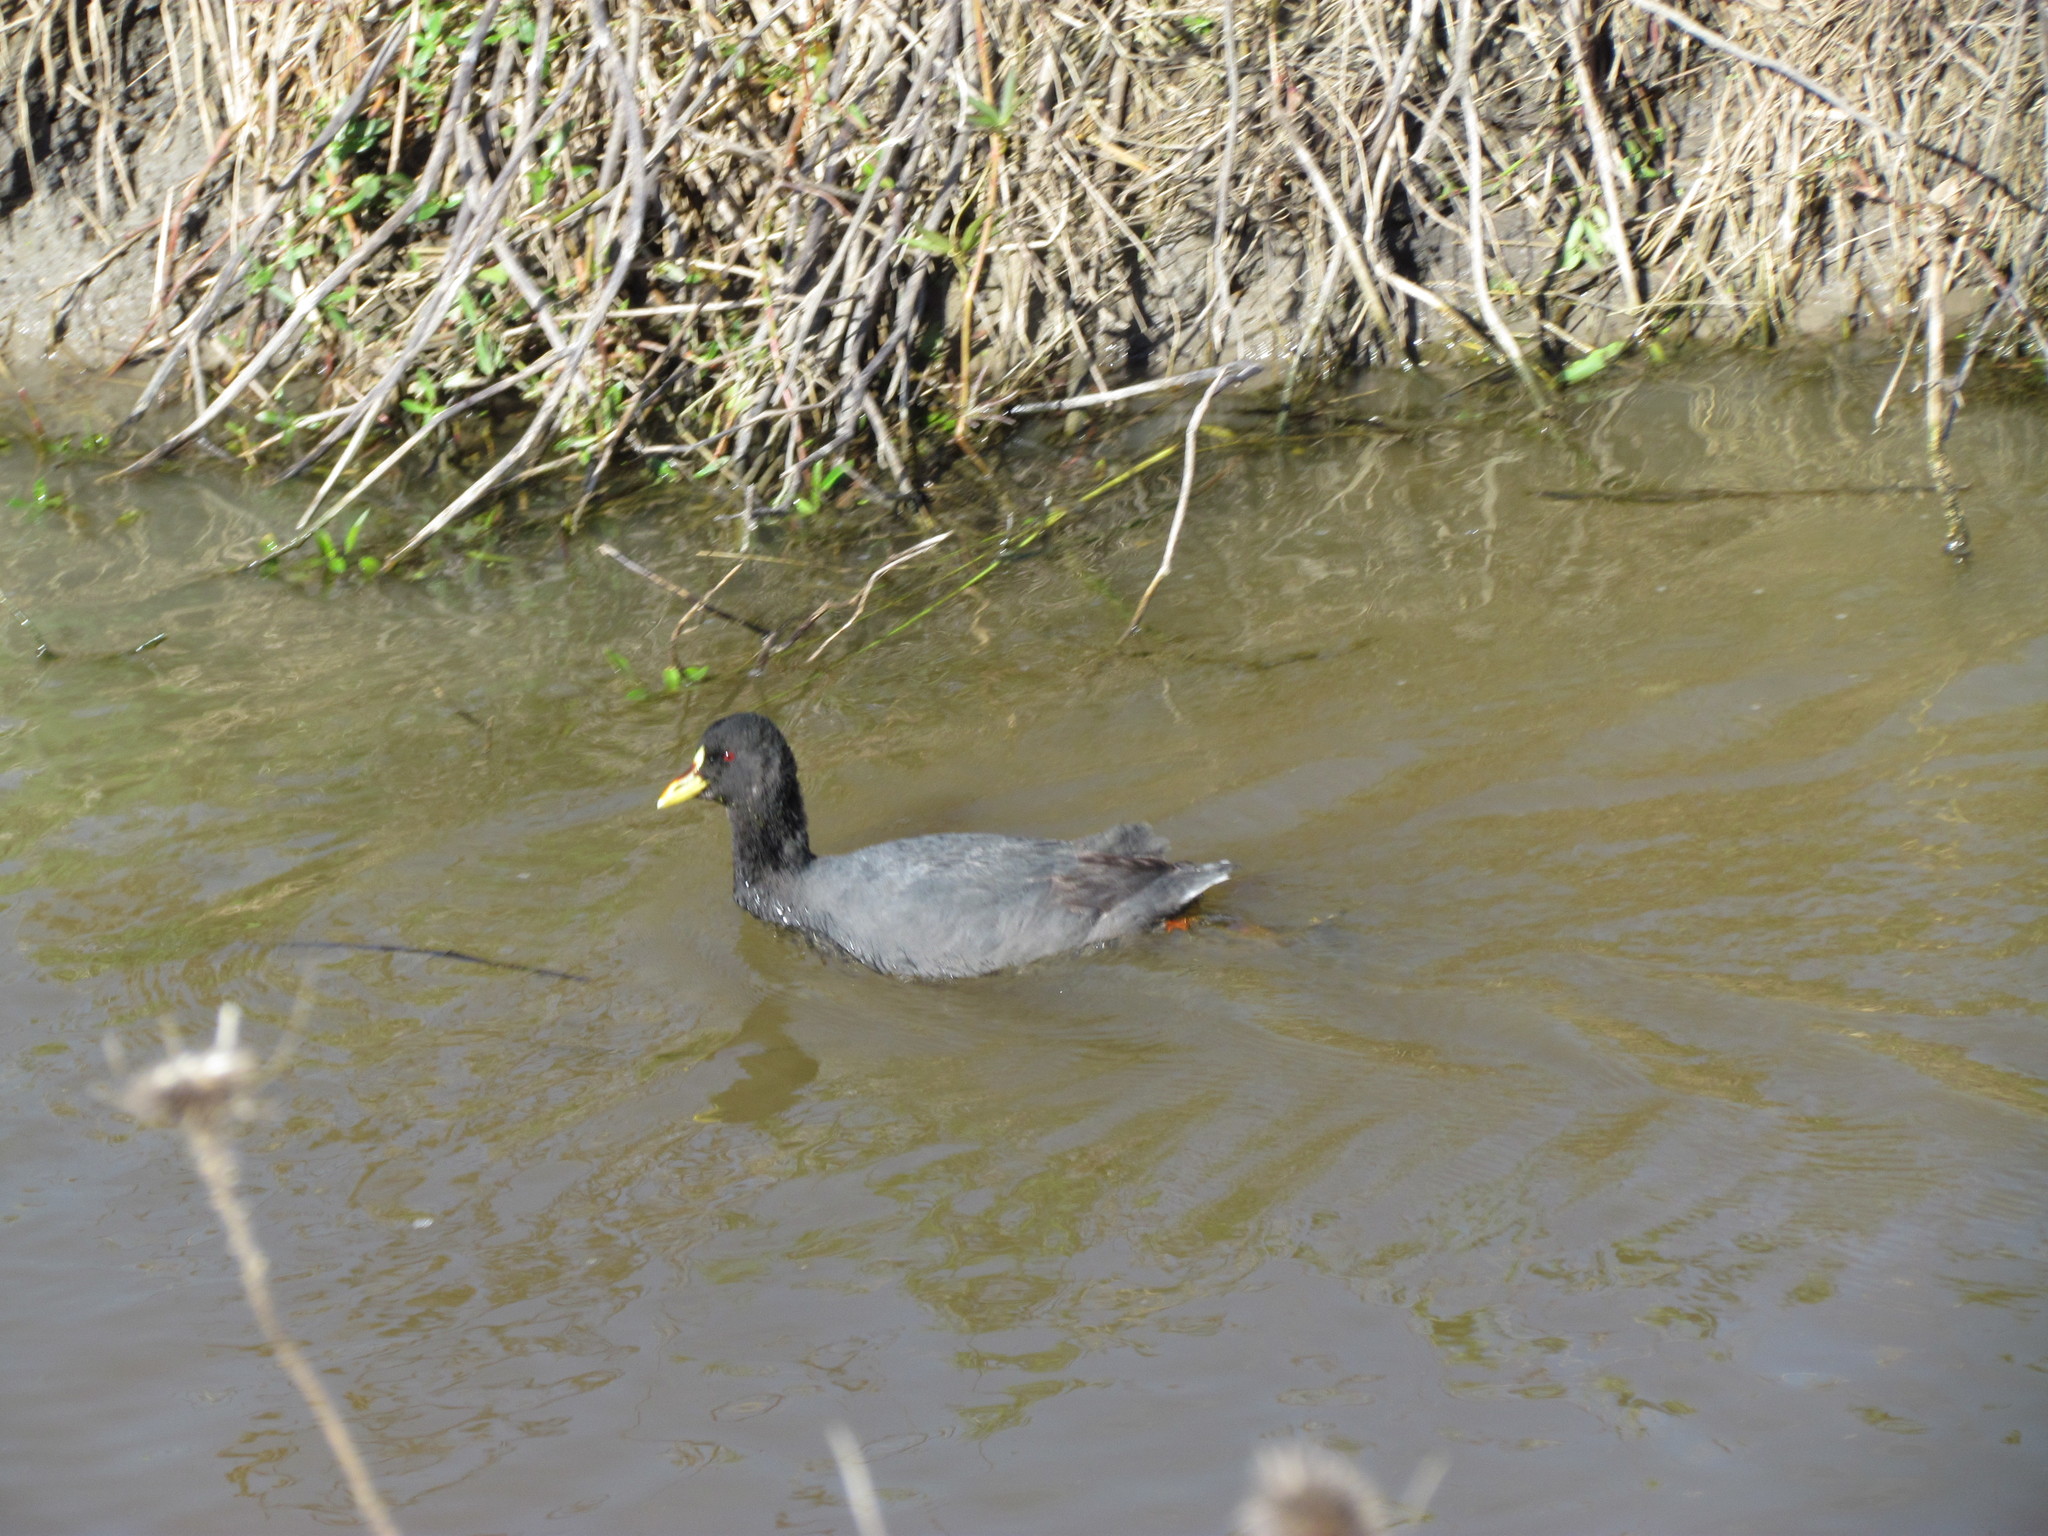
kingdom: Animalia
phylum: Chordata
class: Aves
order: Gruiformes
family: Rallidae
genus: Fulica
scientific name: Fulica armillata
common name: Red-gartered coot
